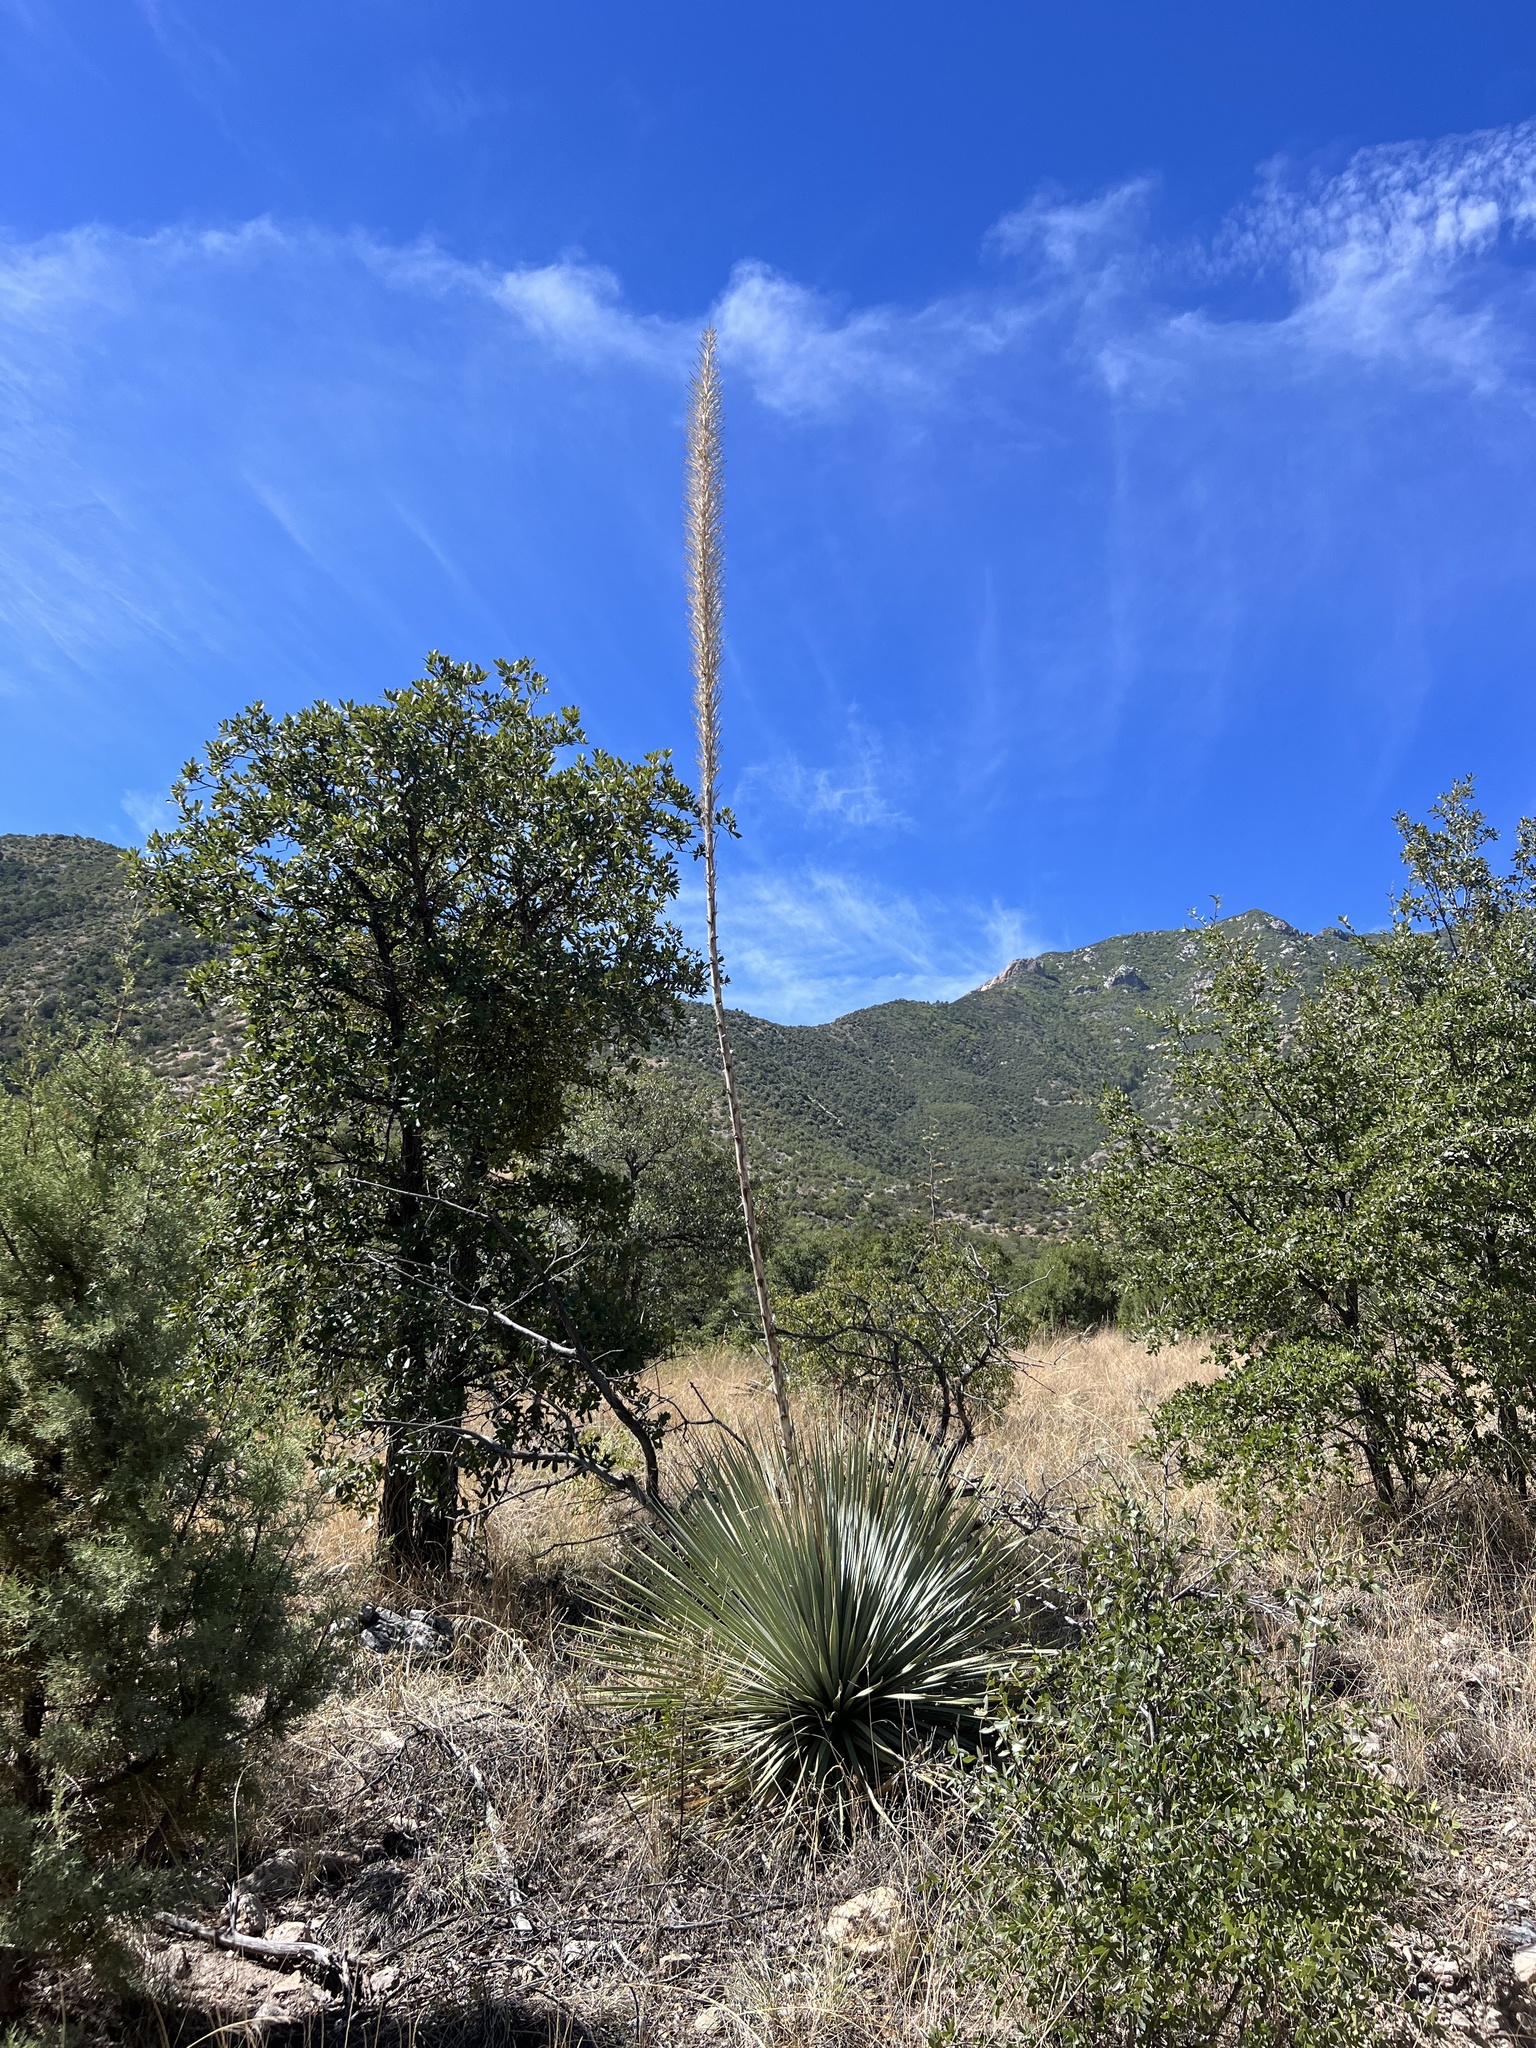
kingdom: Plantae
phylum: Tracheophyta
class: Liliopsida
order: Asparagales
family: Asparagaceae
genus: Dasylirion
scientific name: Dasylirion wheeleri
